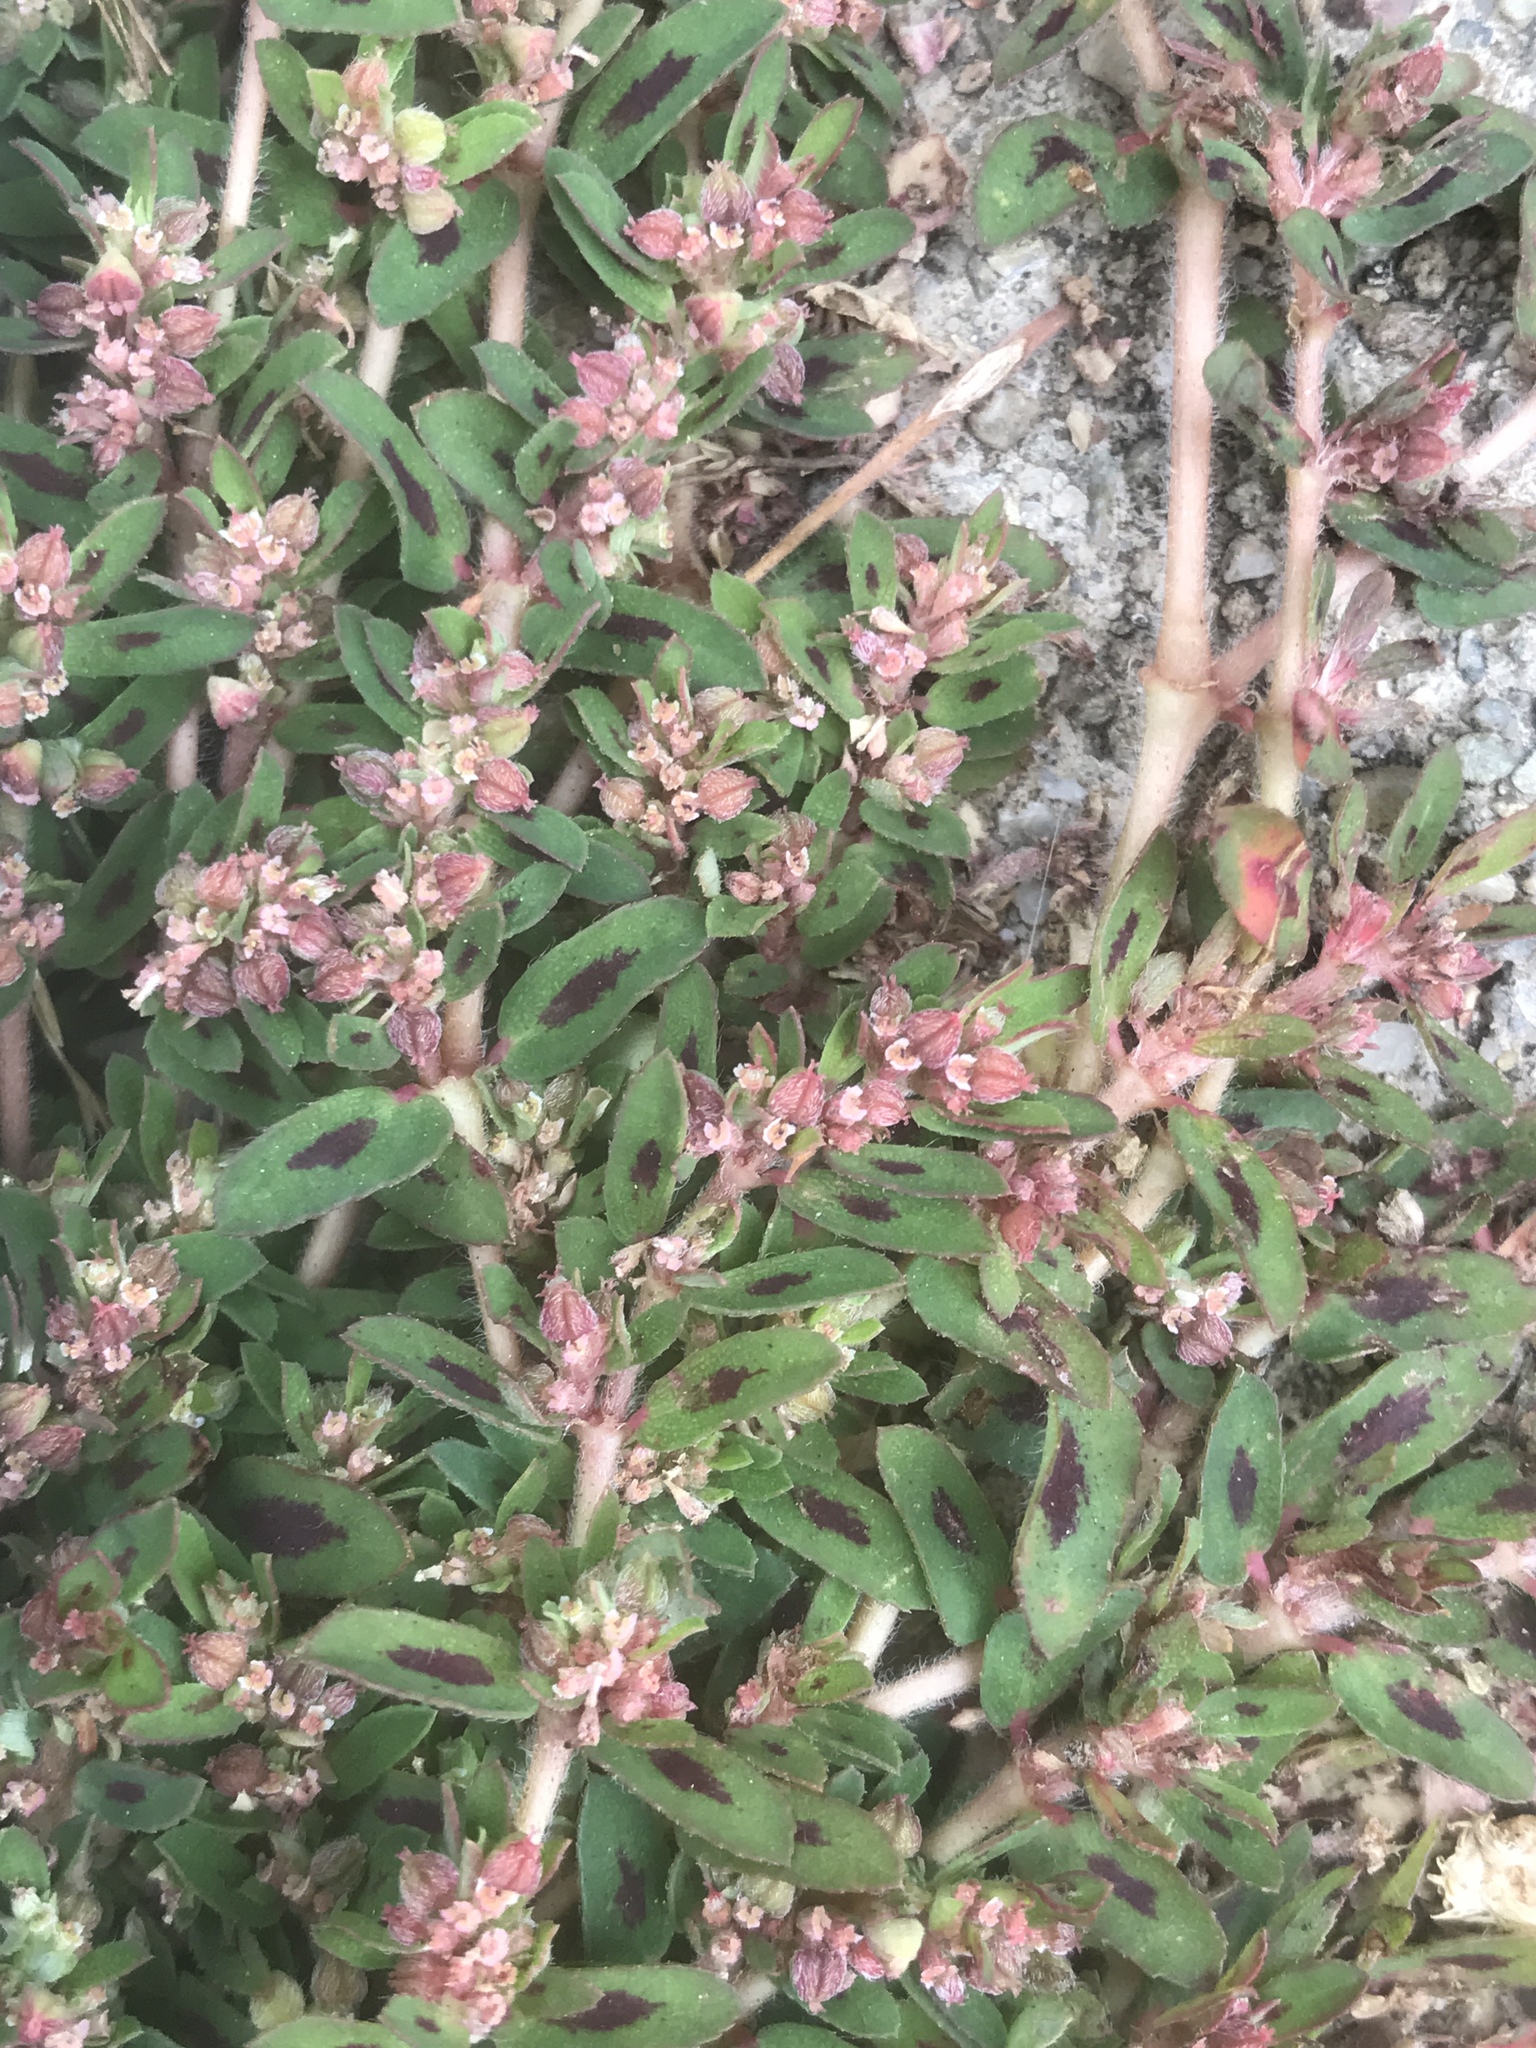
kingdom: Plantae
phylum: Tracheophyta
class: Magnoliopsida
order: Malpighiales
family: Euphorbiaceae
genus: Euphorbia
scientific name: Euphorbia maculata
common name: Spotted spurge
